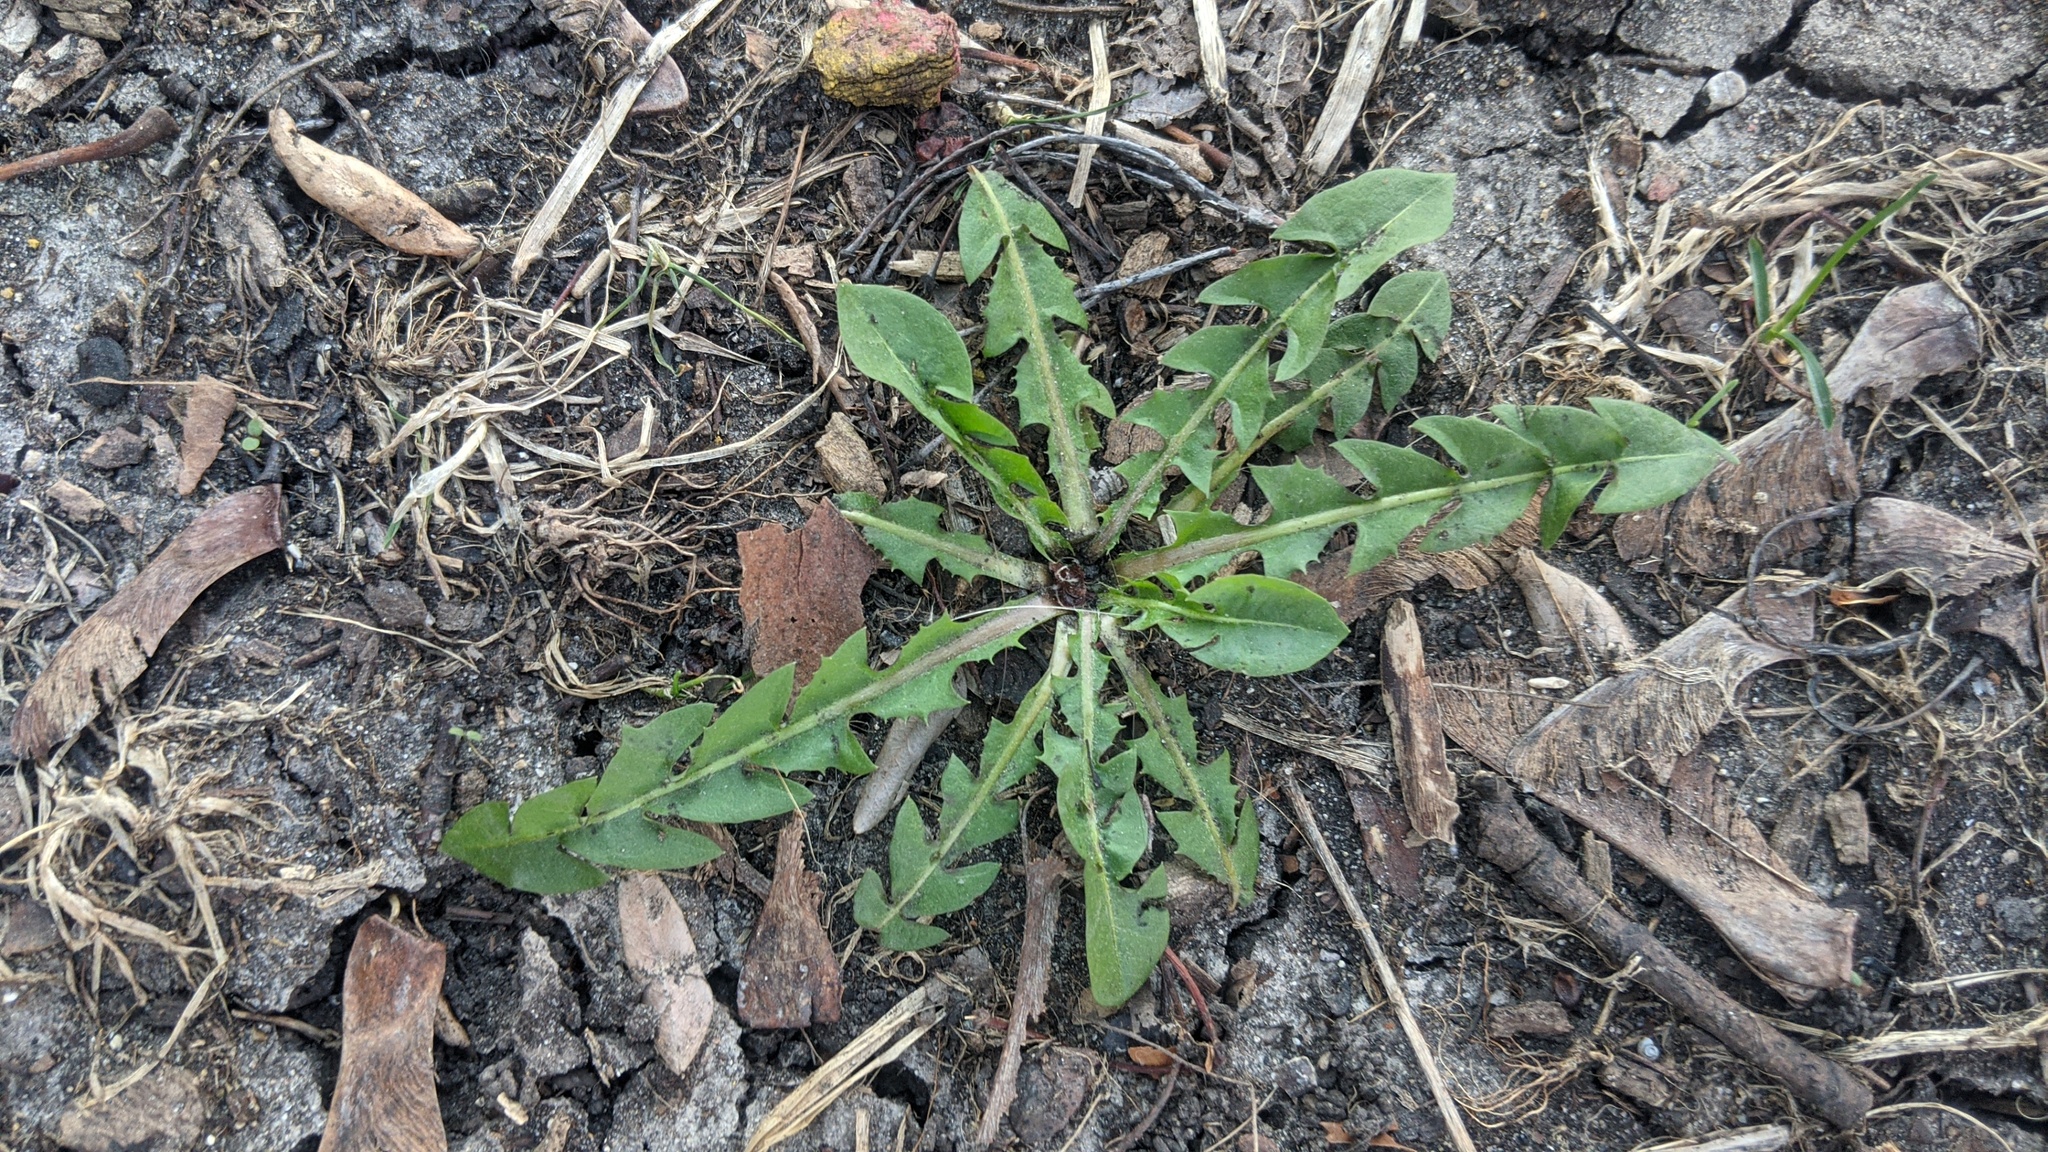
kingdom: Plantae
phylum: Tracheophyta
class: Magnoliopsida
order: Asterales
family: Asteraceae
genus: Taraxacum
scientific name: Taraxacum officinale
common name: Common dandelion
